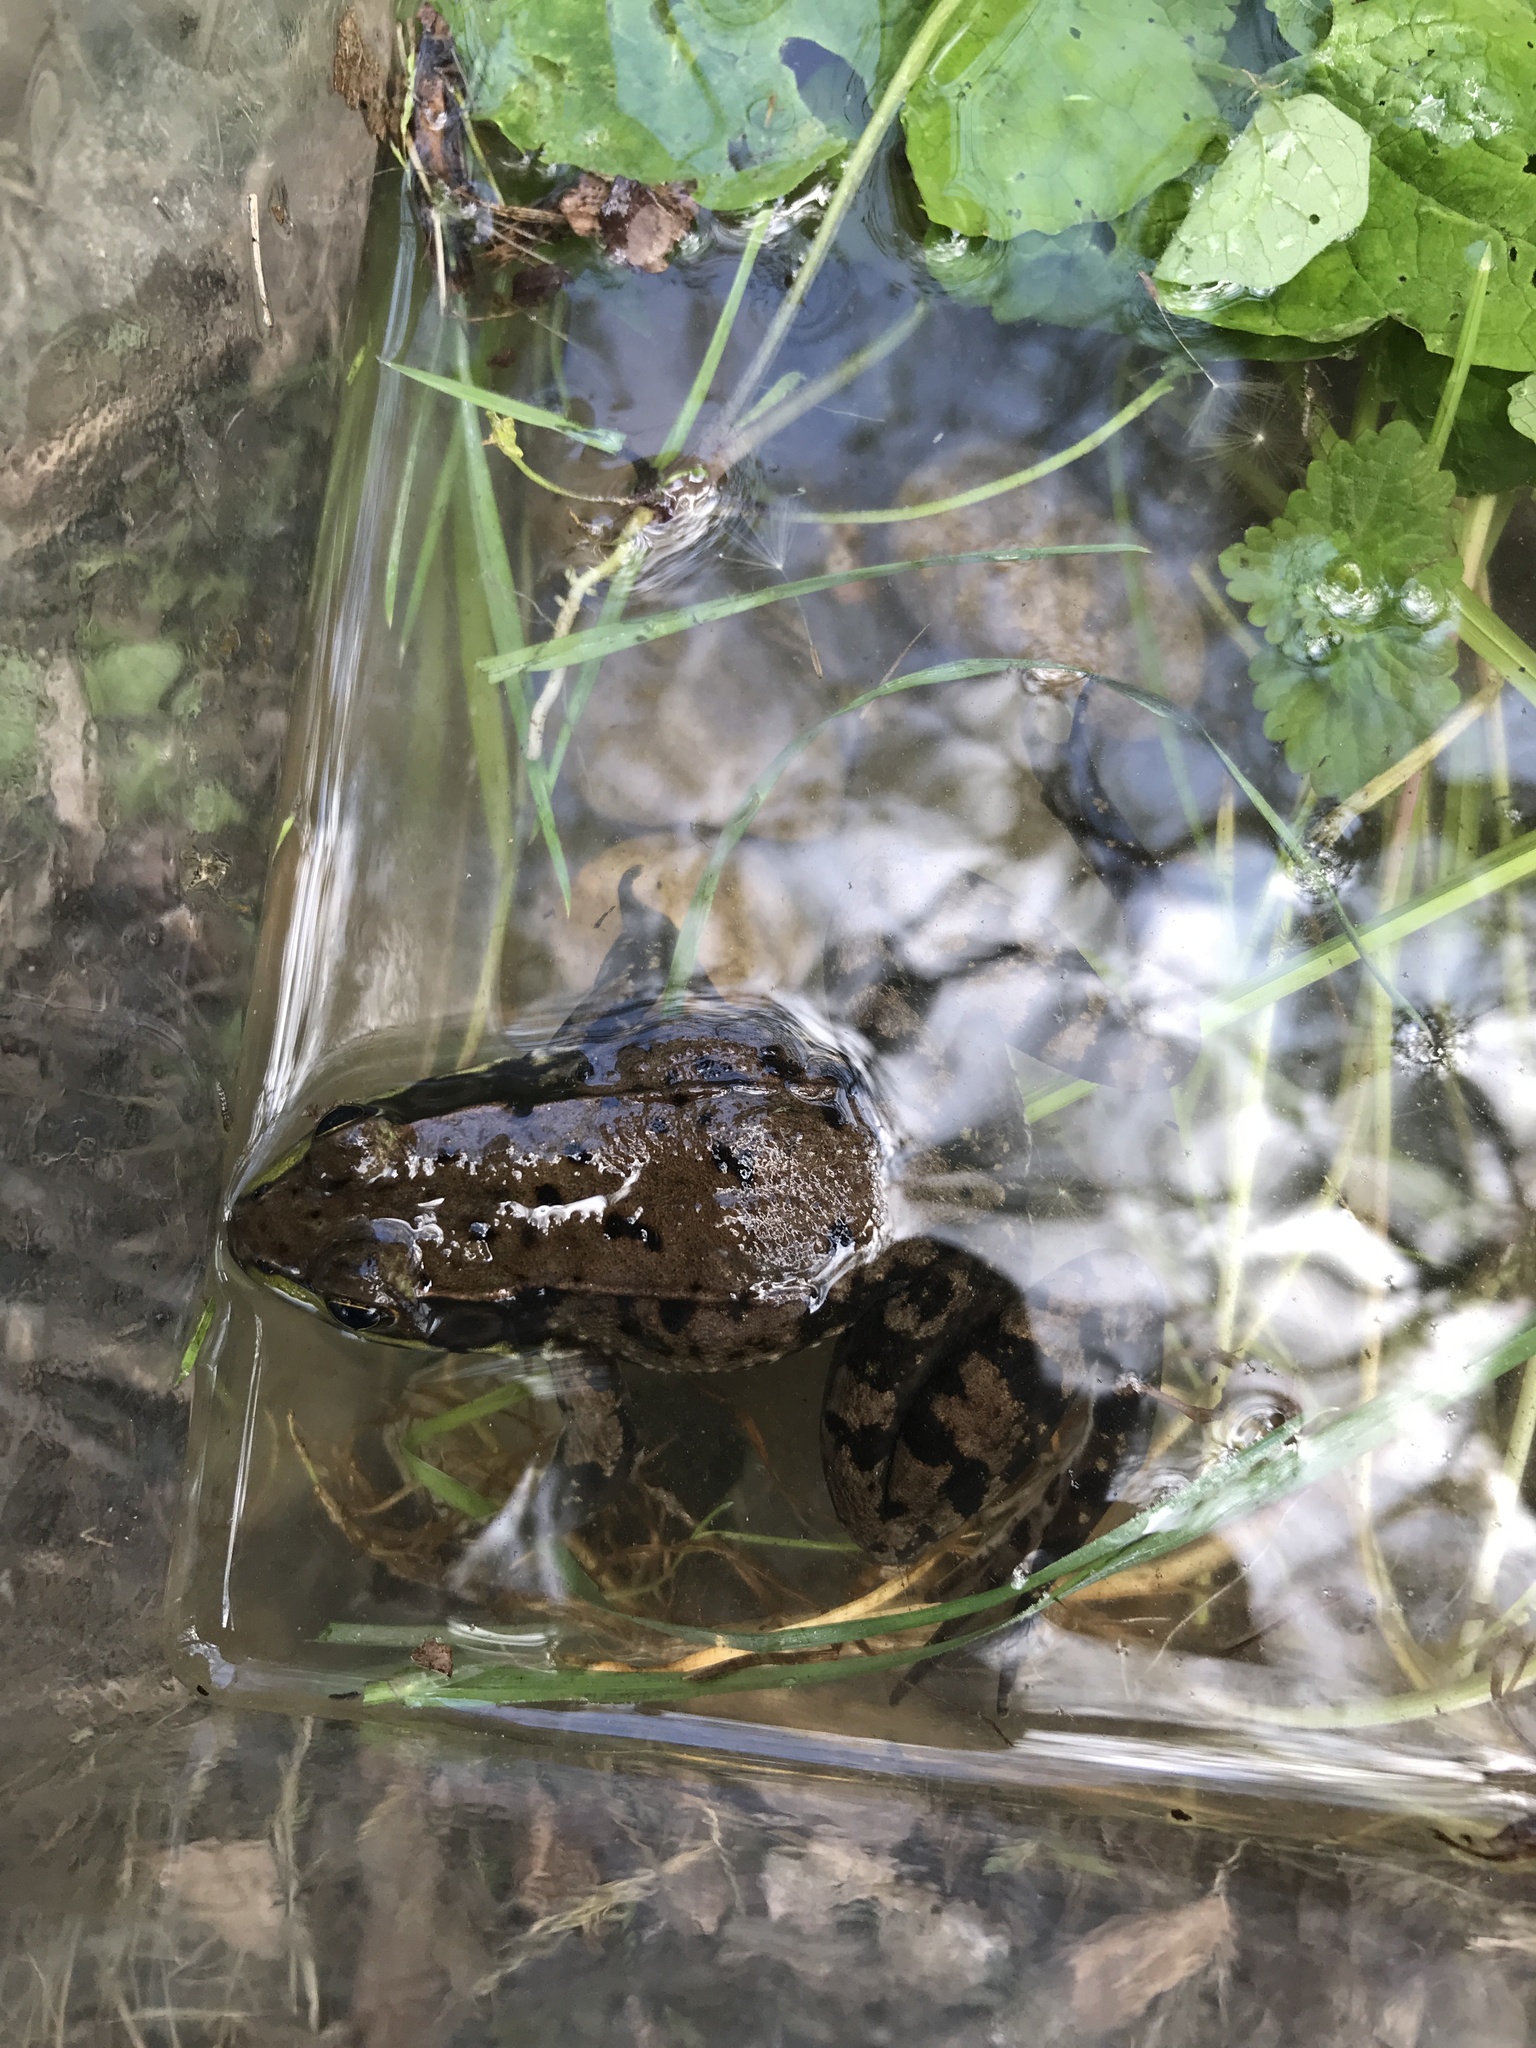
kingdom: Animalia
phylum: Chordata
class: Amphibia
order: Anura
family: Ranidae
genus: Lithobates
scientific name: Lithobates clamitans
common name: Green frog
